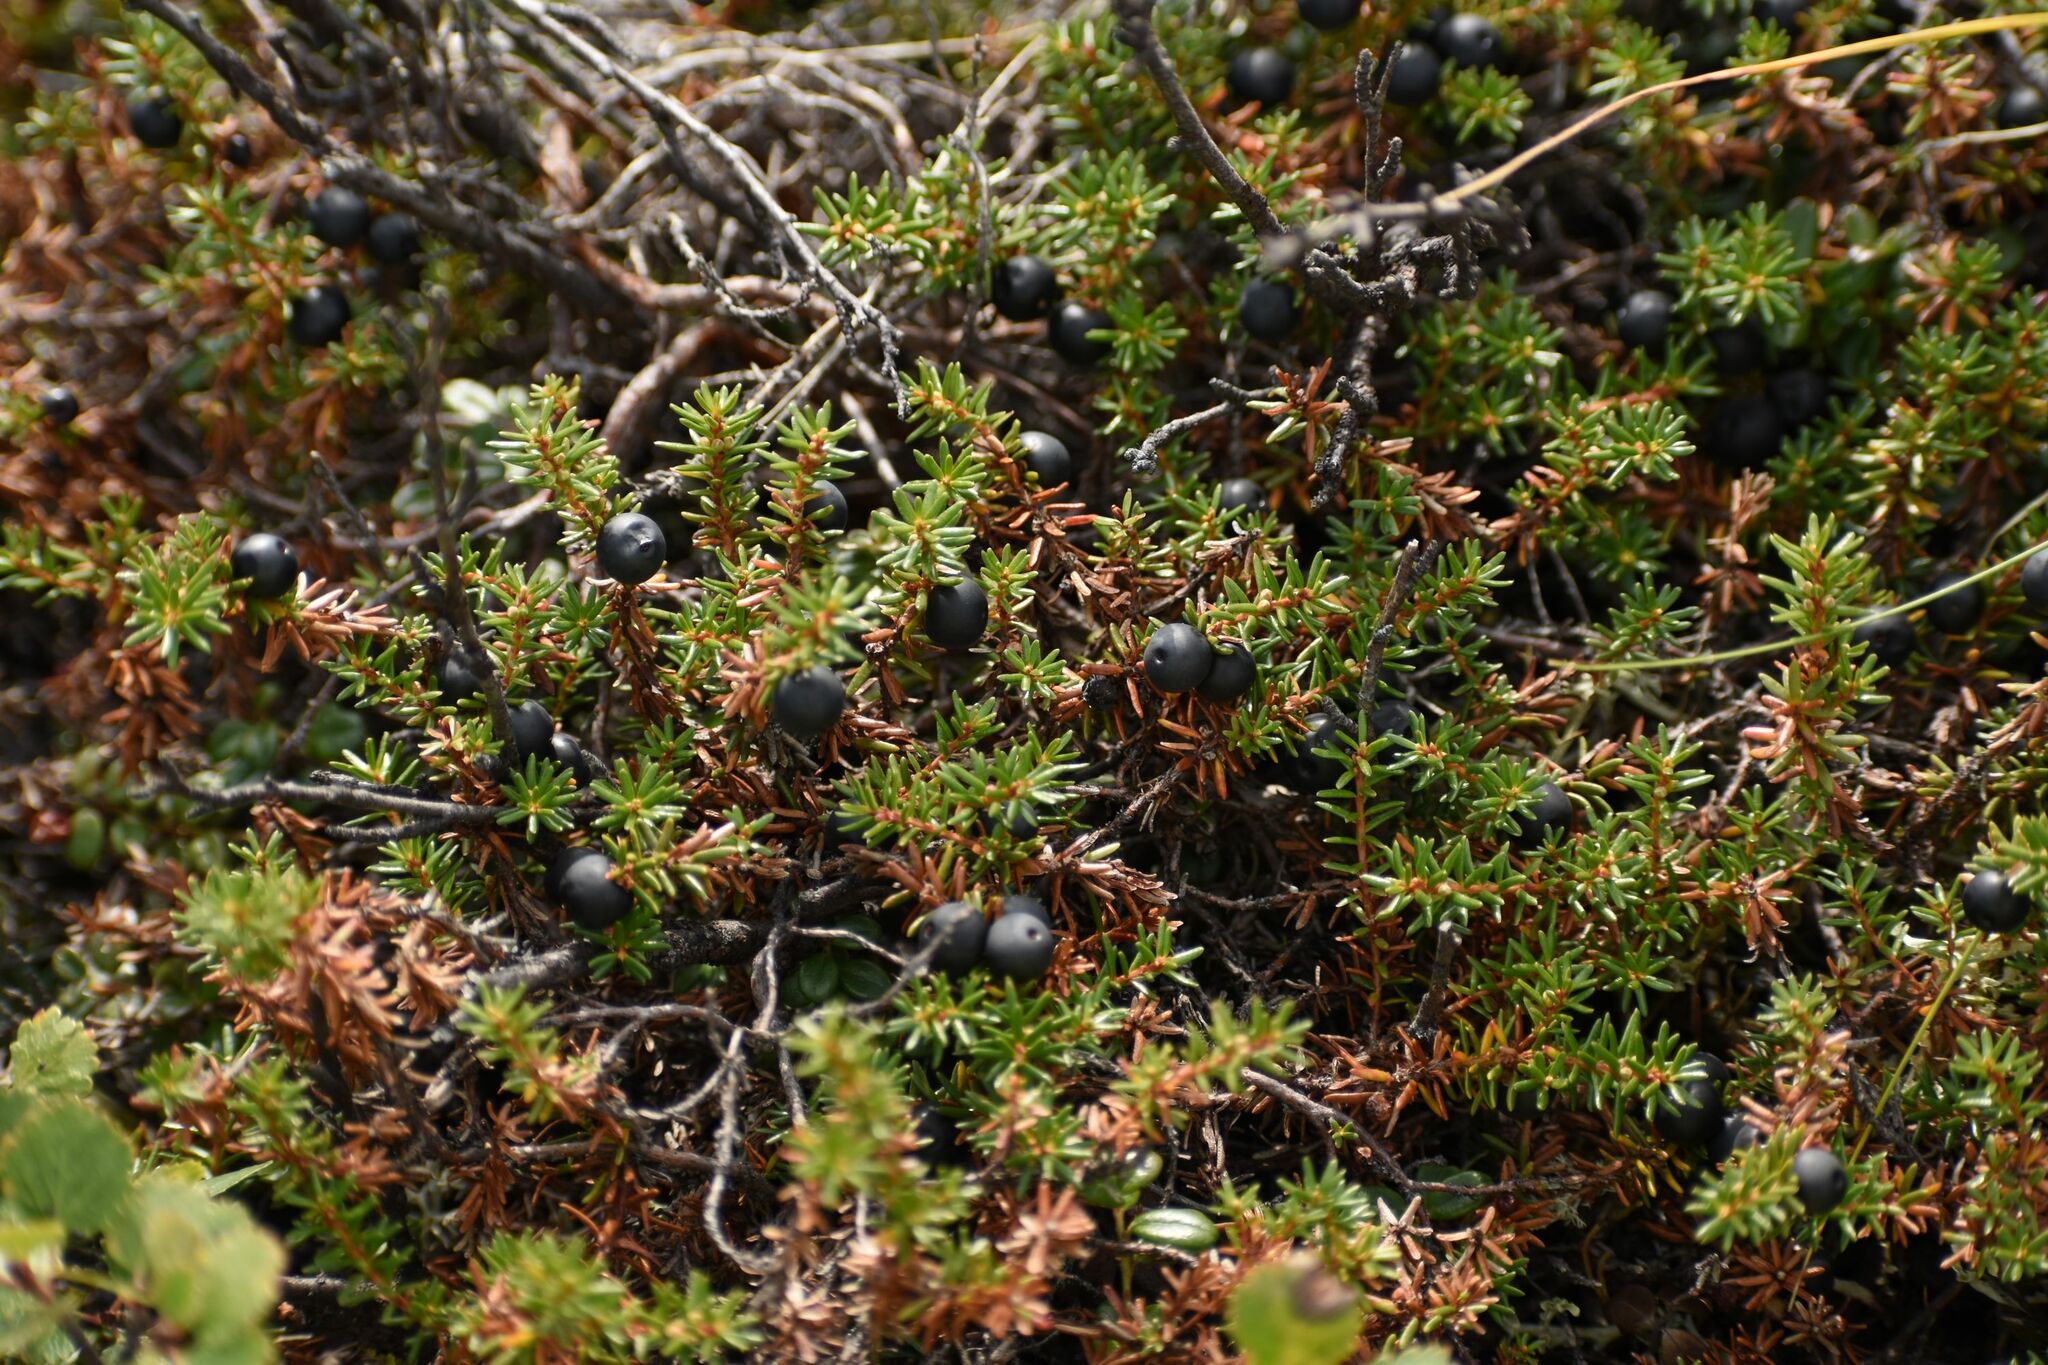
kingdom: Plantae
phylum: Tracheophyta
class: Magnoliopsida
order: Ericales
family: Ericaceae
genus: Empetrum
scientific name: Empetrum nigrum
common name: Black crowberry
